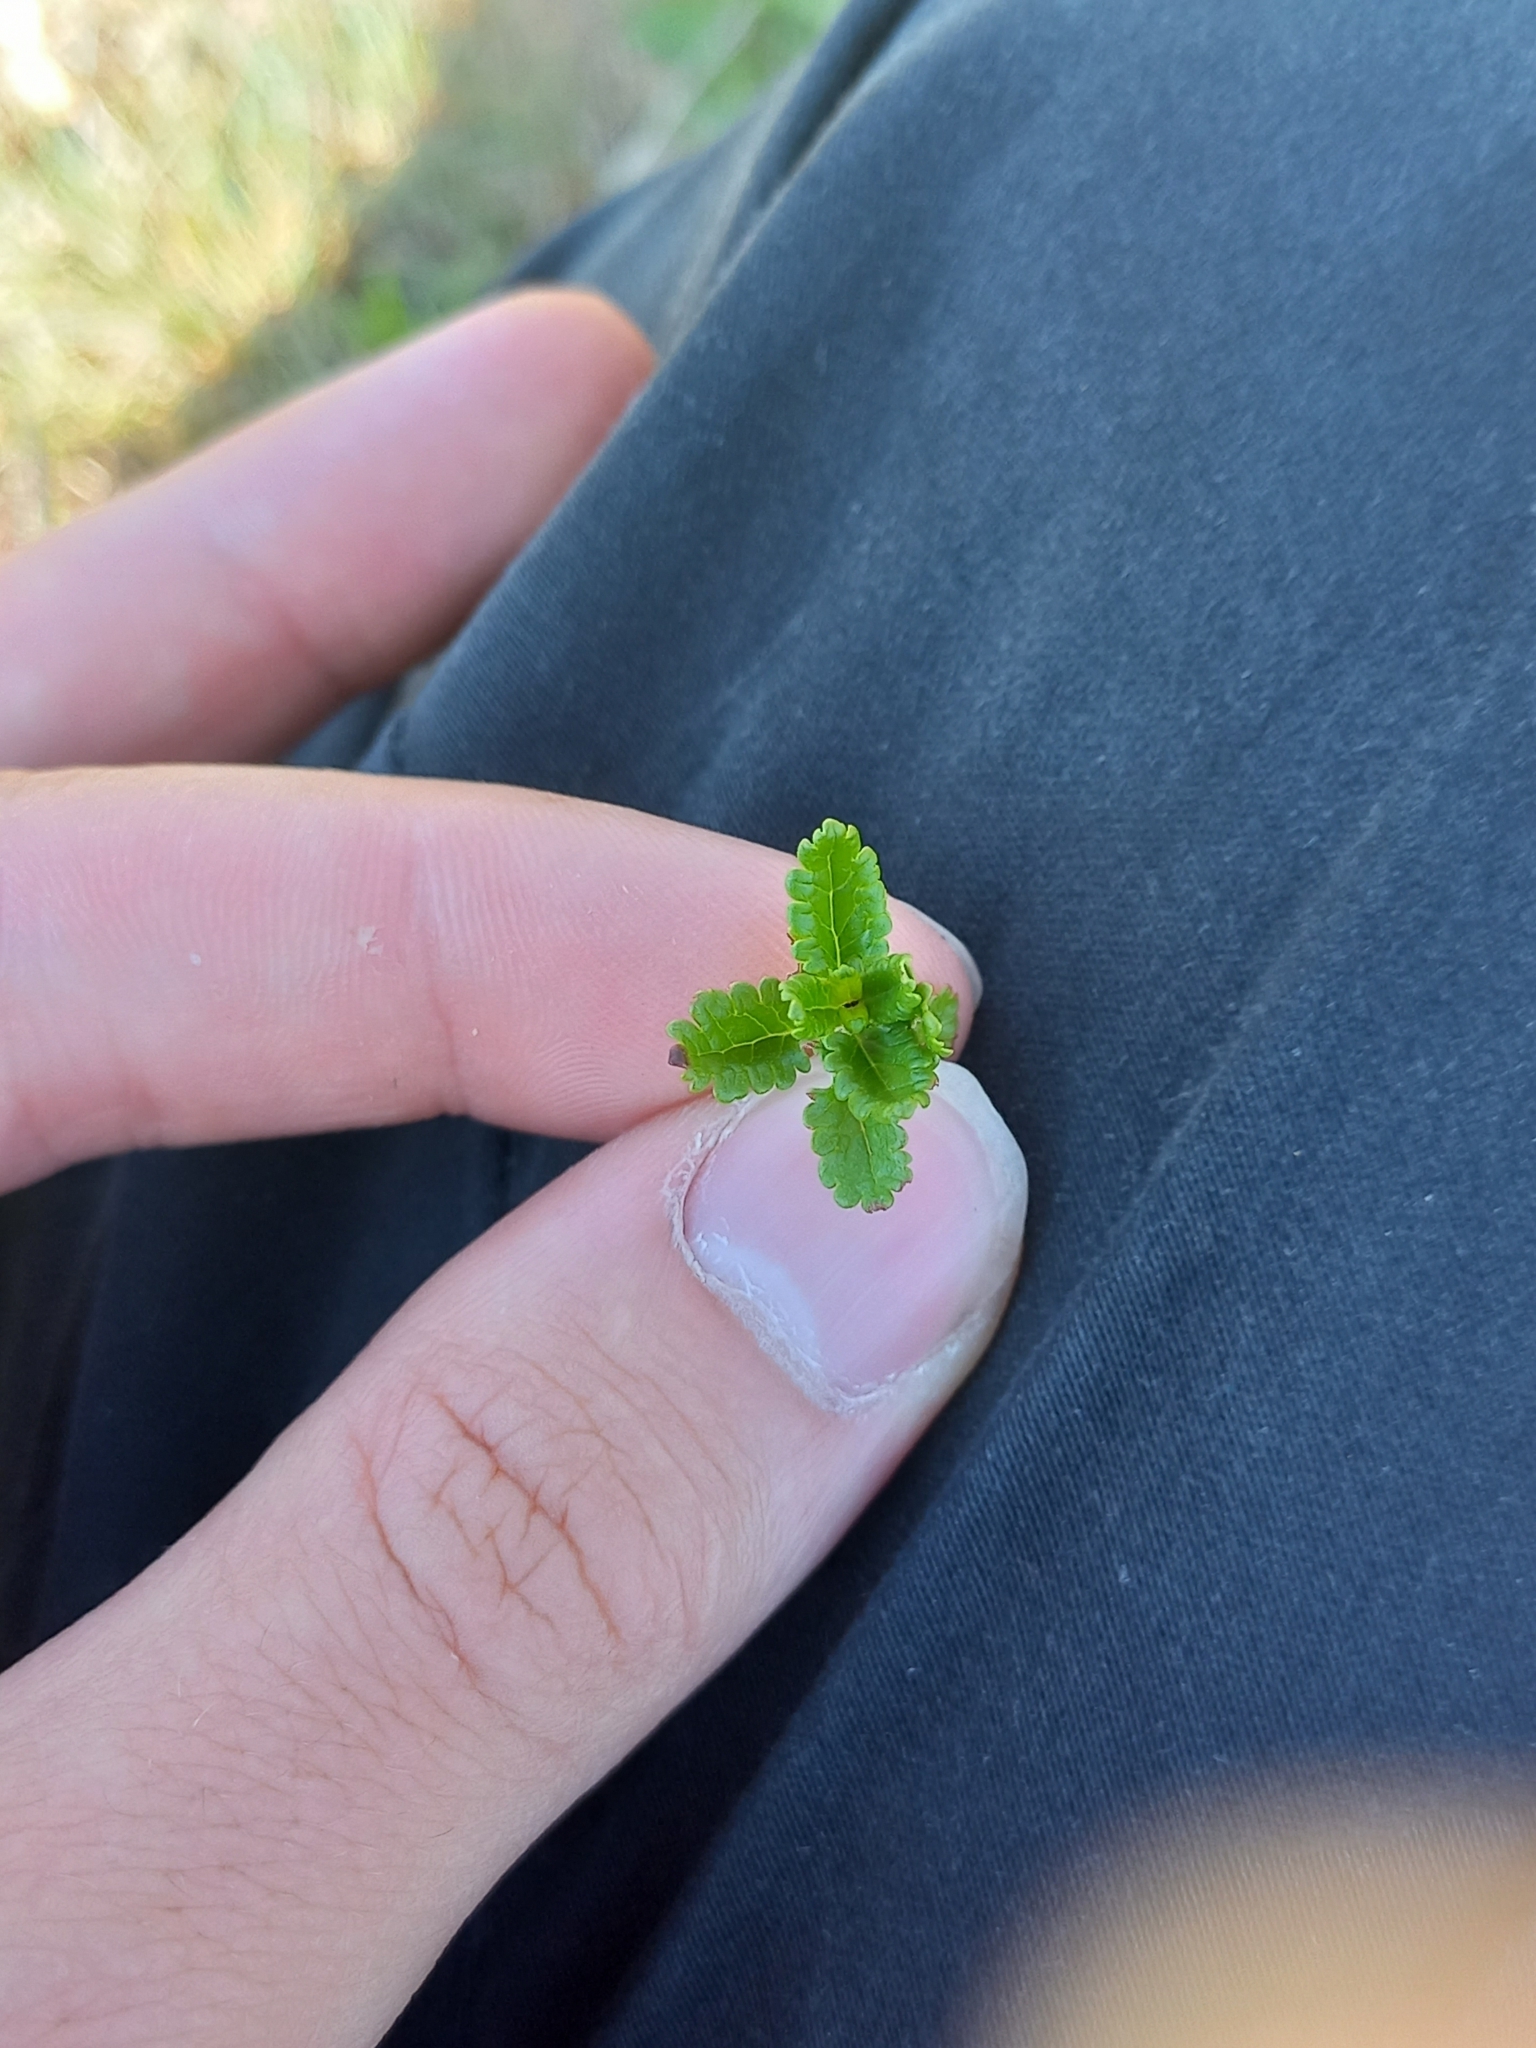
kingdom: Plantae
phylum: Tracheophyta
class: Magnoliopsida
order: Lamiales
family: Lamiaceae
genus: Teucrium
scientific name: Teucrium chamaedrys
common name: Wall germander
